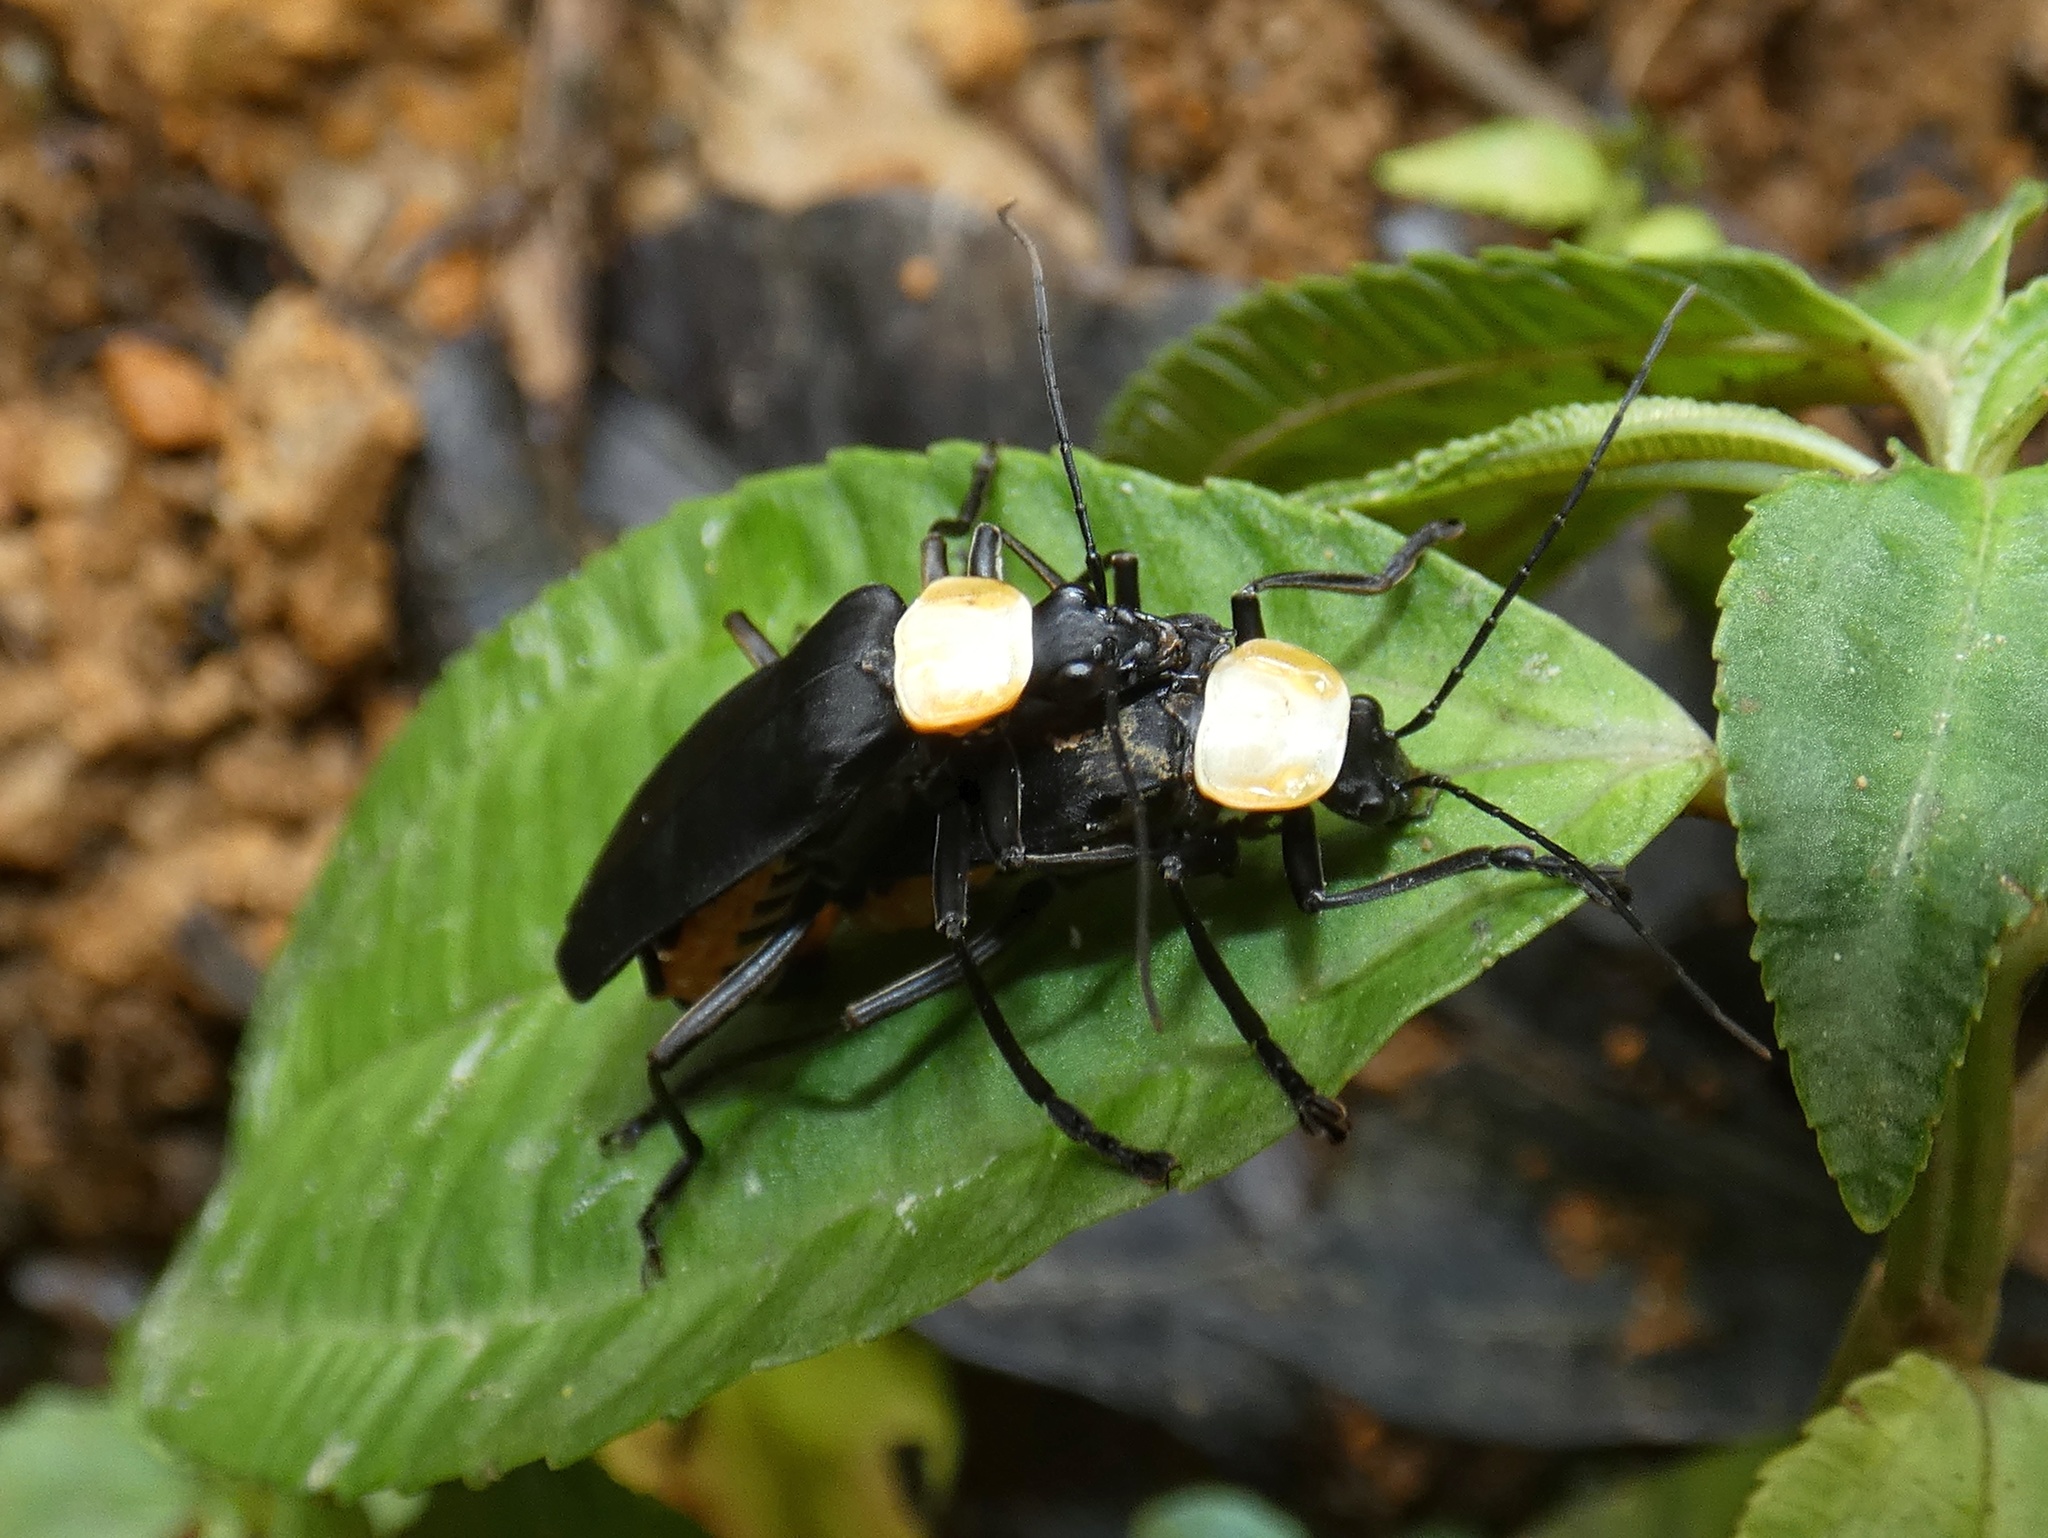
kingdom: Animalia
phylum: Arthropoda
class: Insecta
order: Coleoptera
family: Cantharidae
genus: Chauliognathus
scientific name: Chauliognathus
